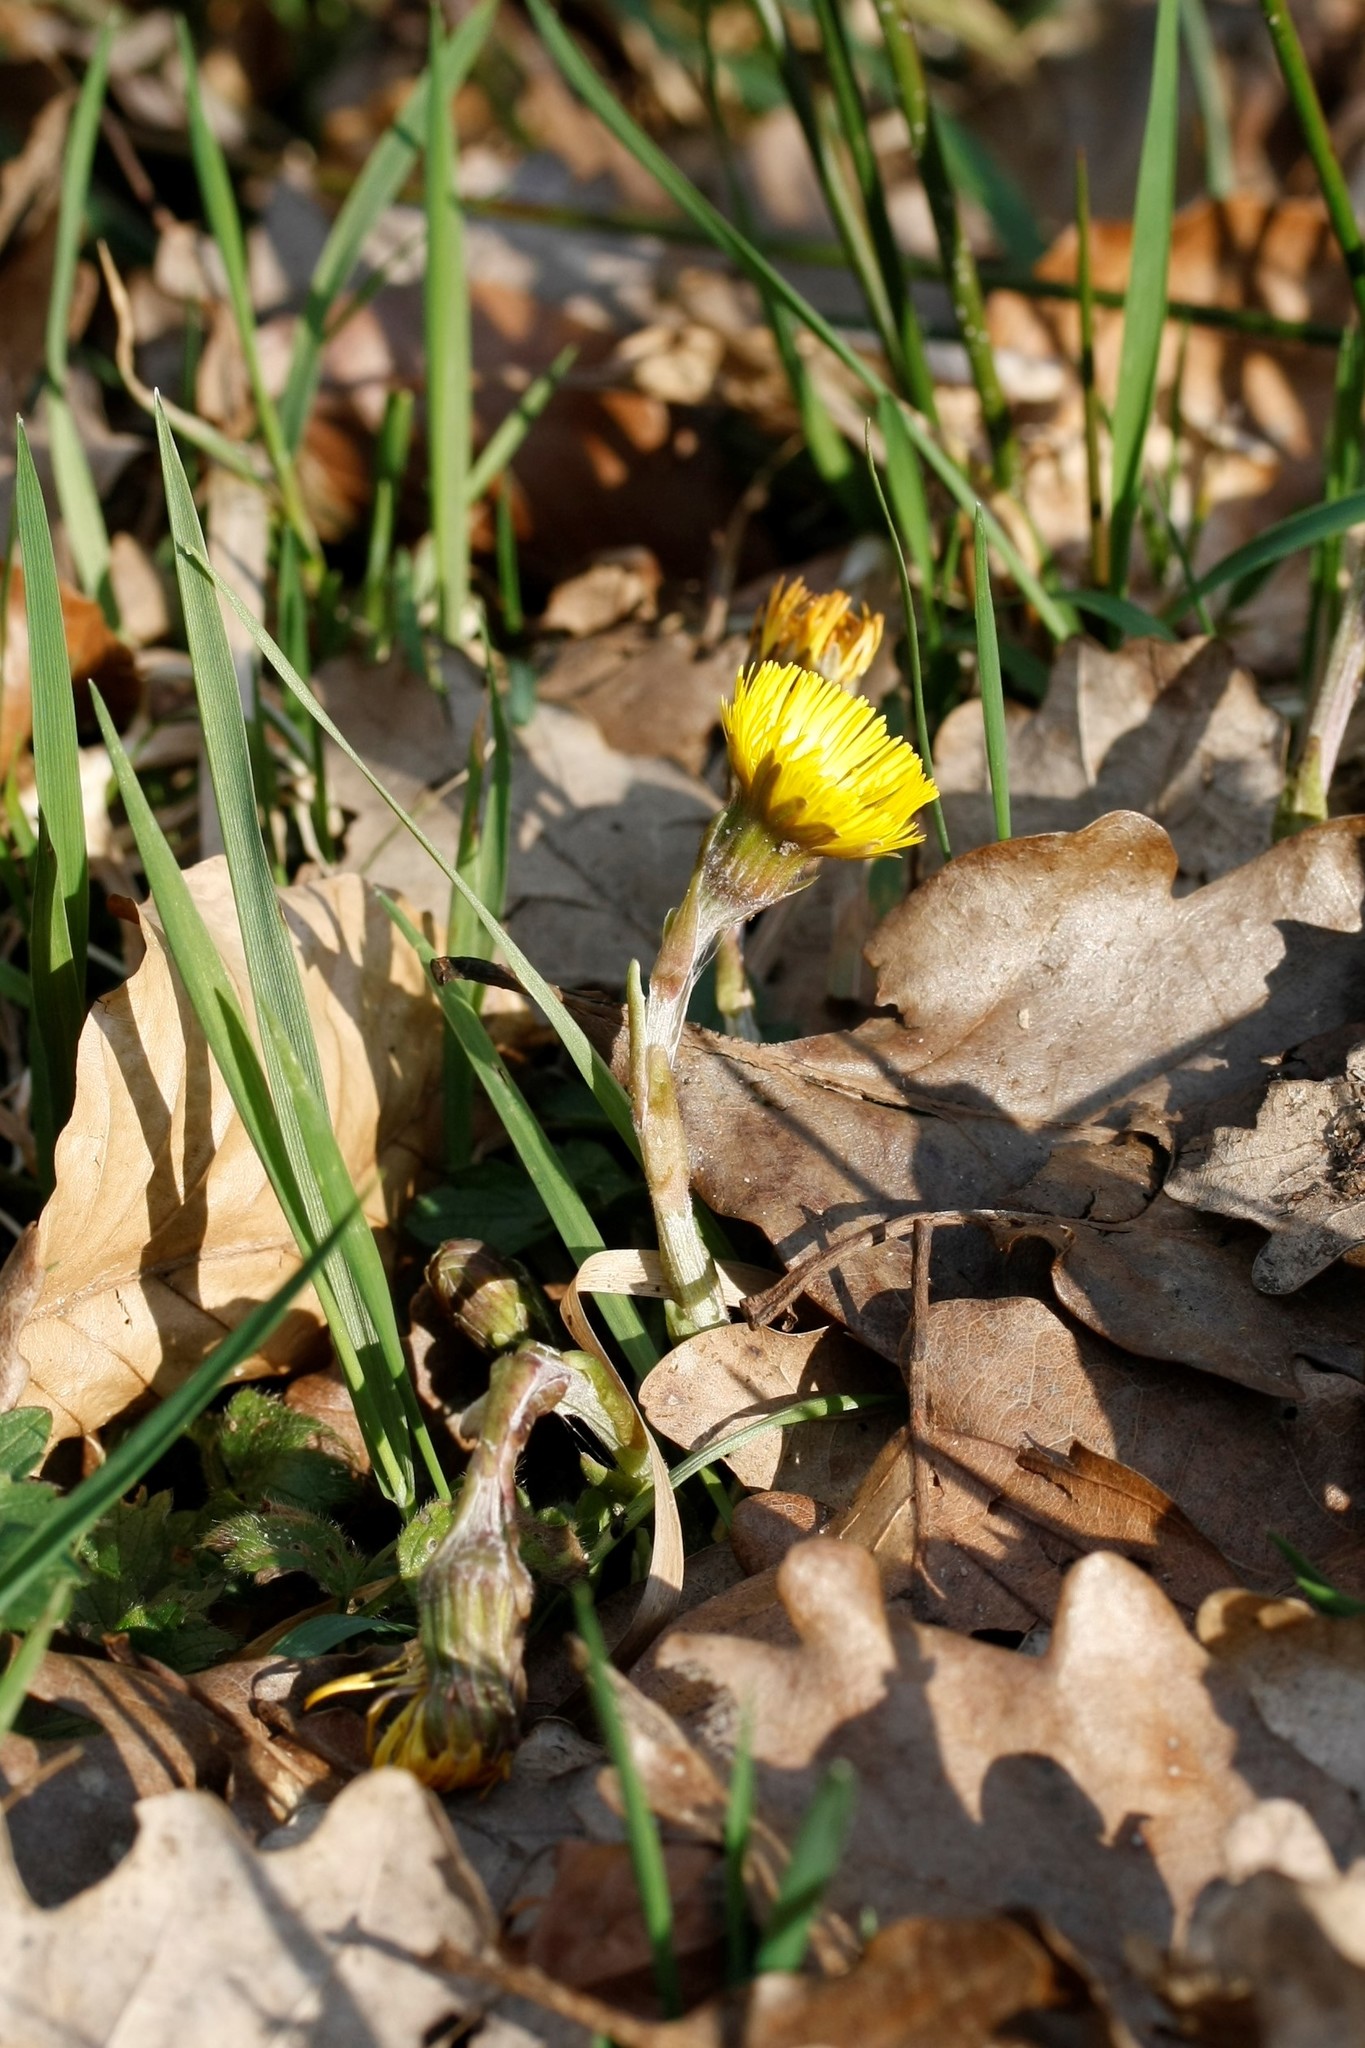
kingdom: Plantae
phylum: Tracheophyta
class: Magnoliopsida
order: Asterales
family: Asteraceae
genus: Tussilago
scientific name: Tussilago farfara
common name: Coltsfoot
